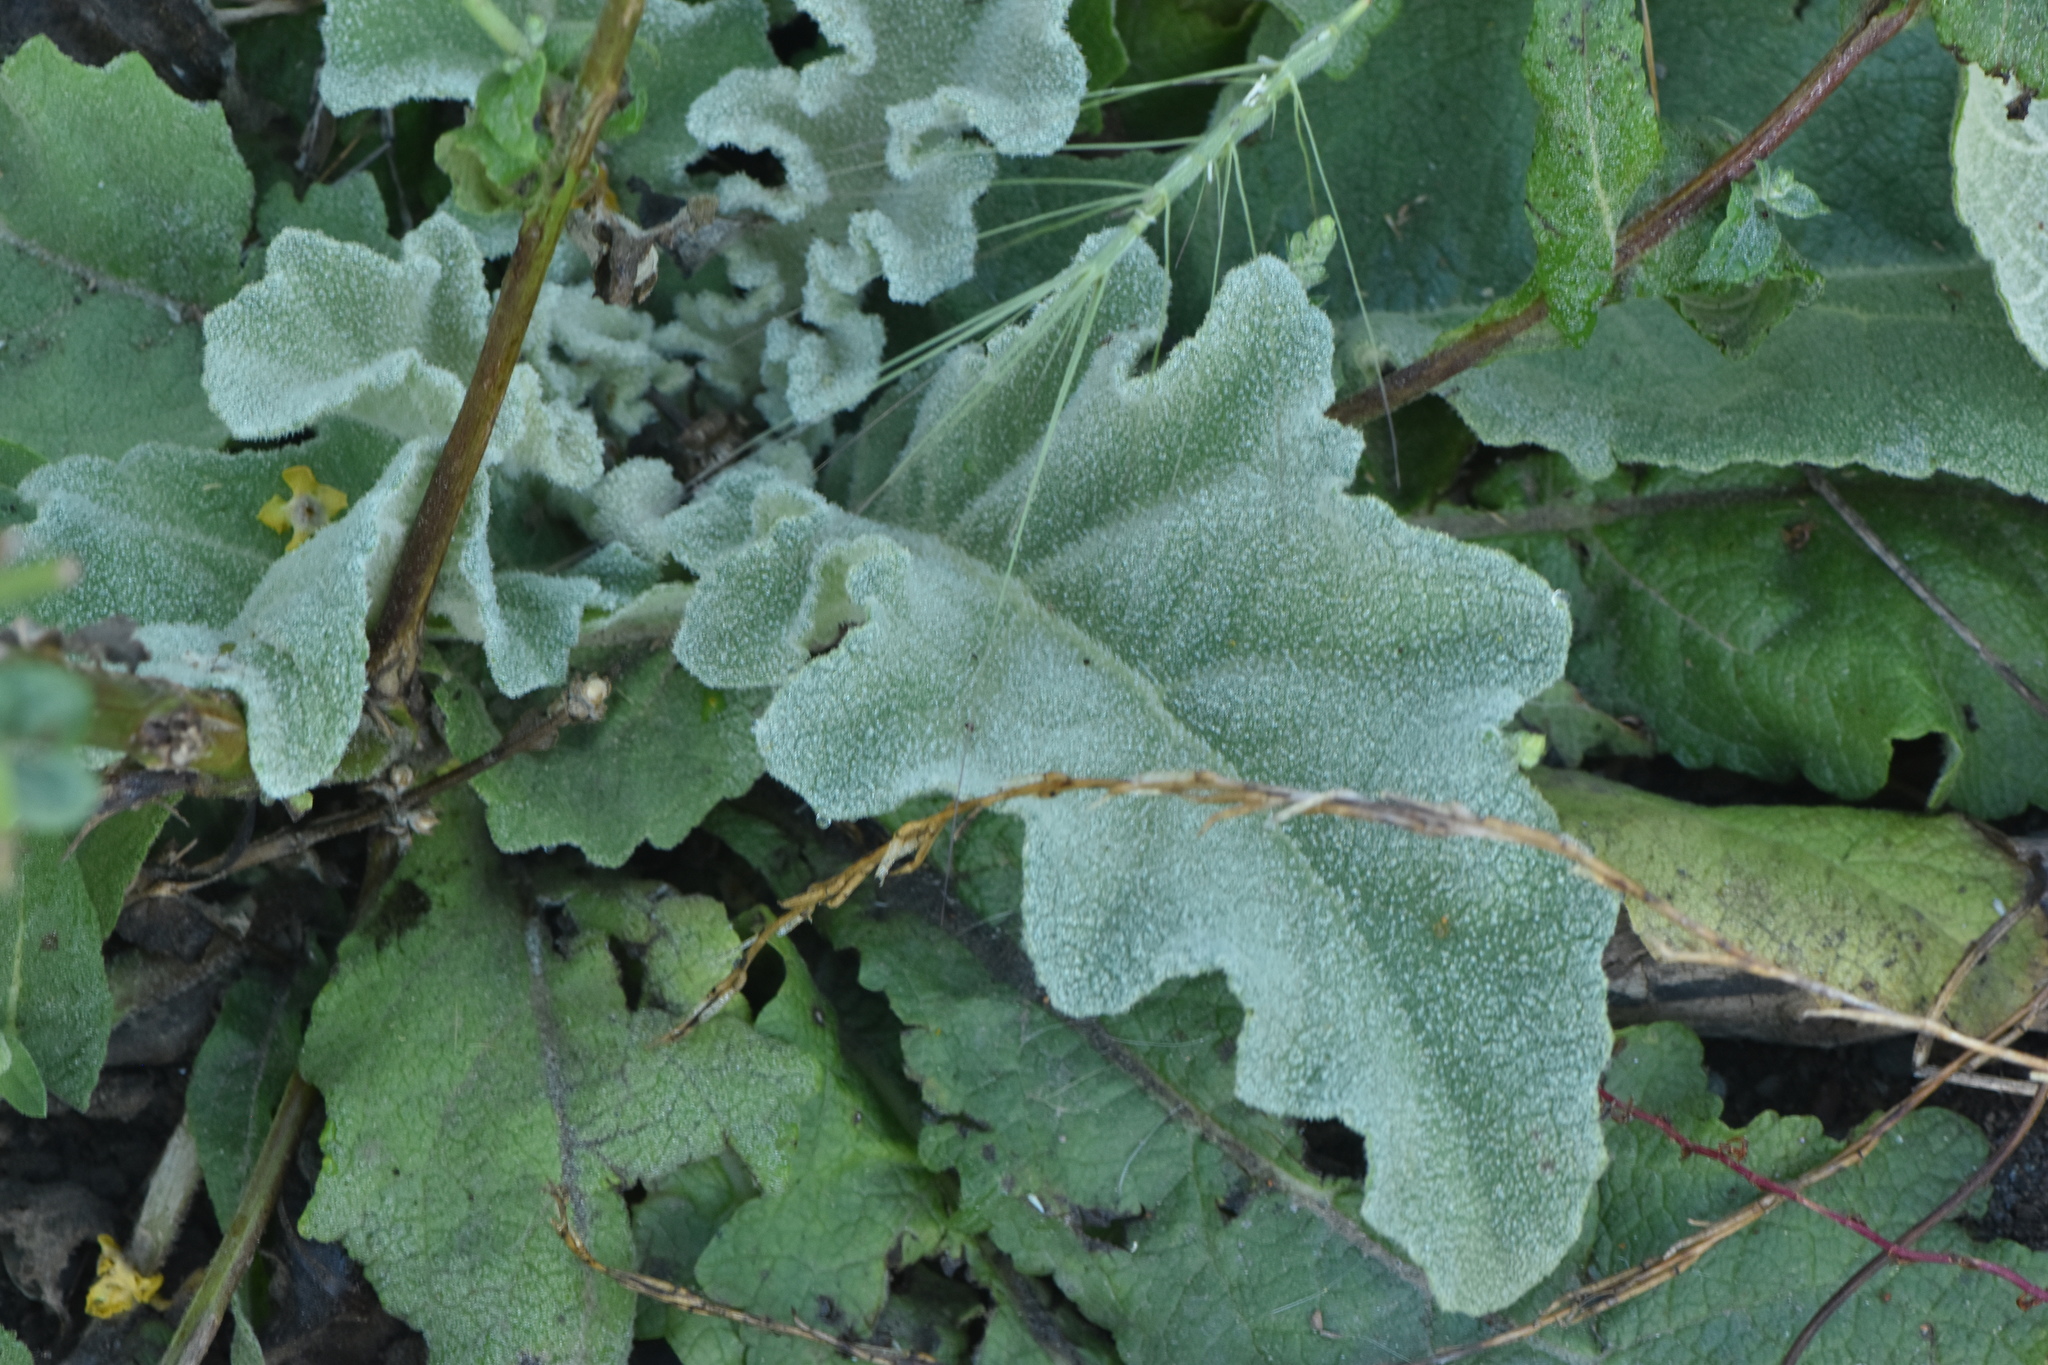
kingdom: Plantae
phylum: Tracheophyta
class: Magnoliopsida
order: Lamiales
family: Scrophulariaceae
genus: Verbascum
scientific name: Verbascum sinuatum
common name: Wavyleaf mullein
